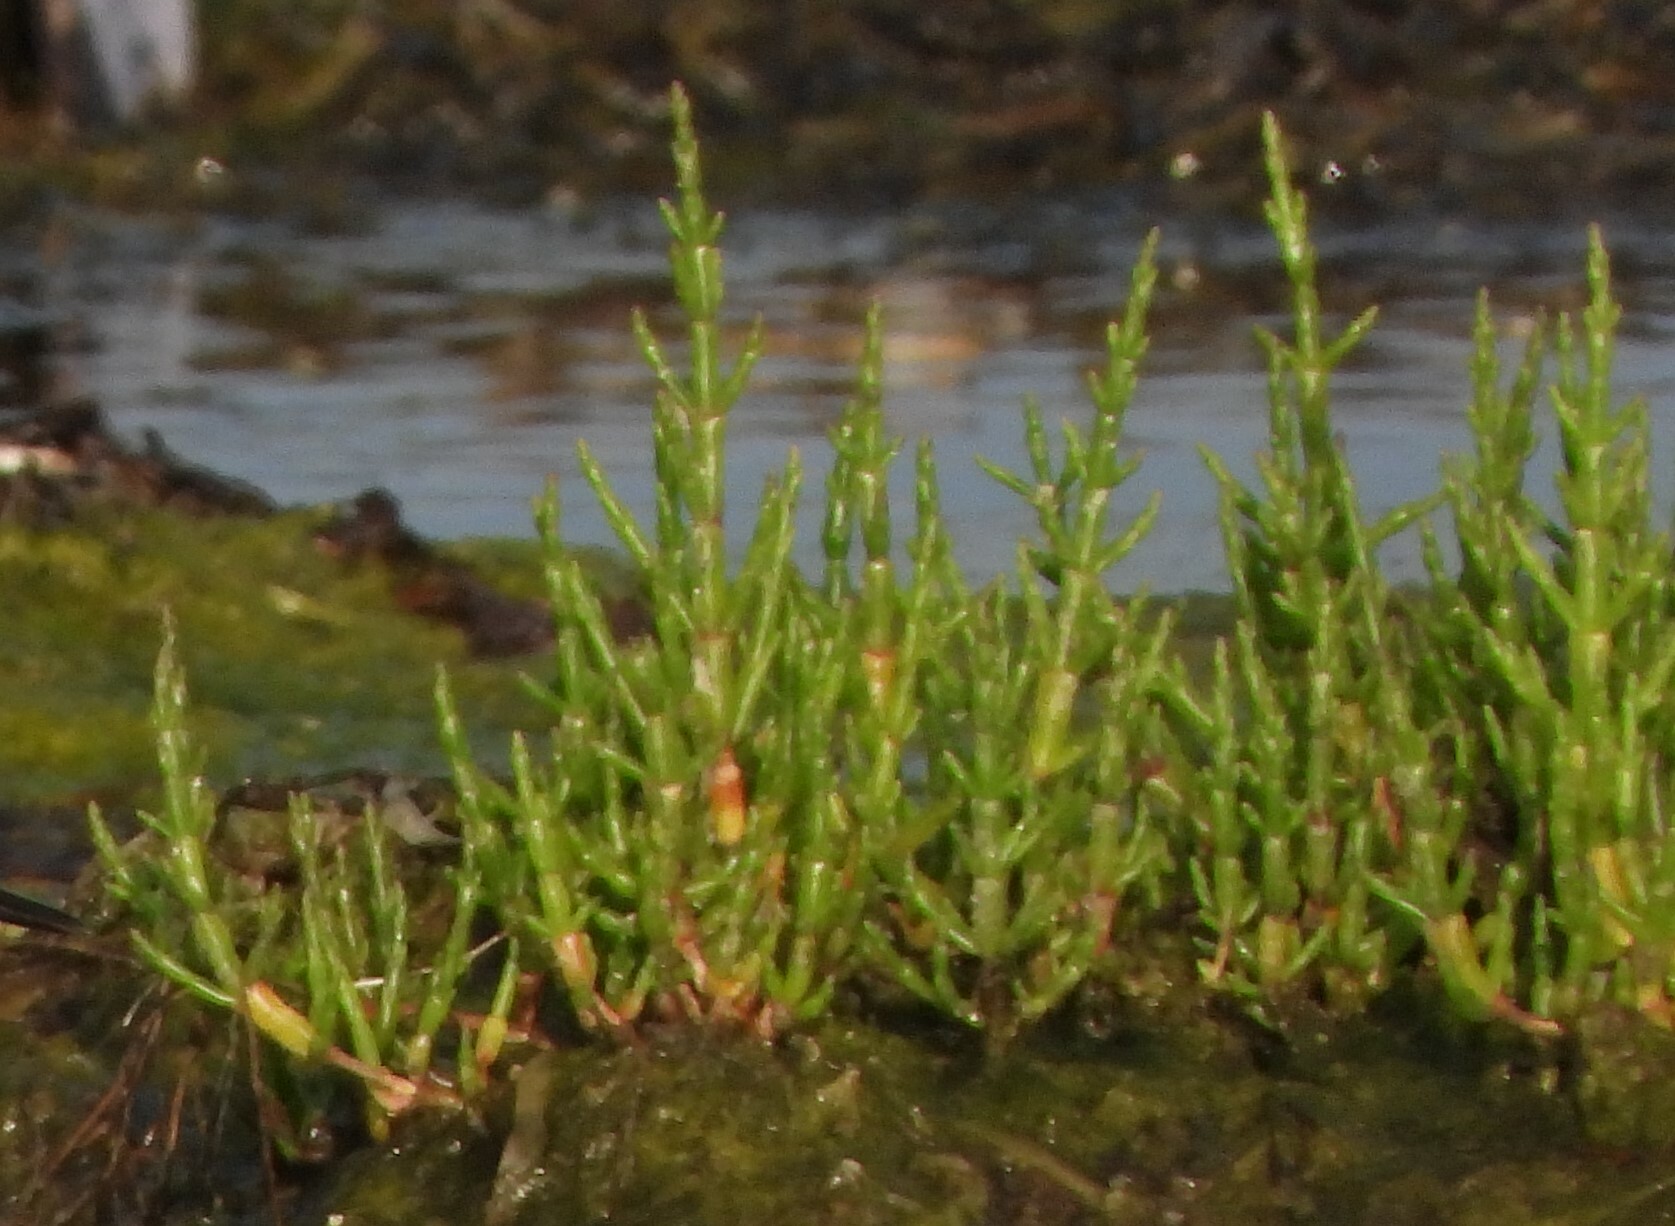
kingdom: Plantae
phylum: Tracheophyta
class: Magnoliopsida
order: Caryophyllales
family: Amaranthaceae
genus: Salicornia
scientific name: Salicornia europaea
